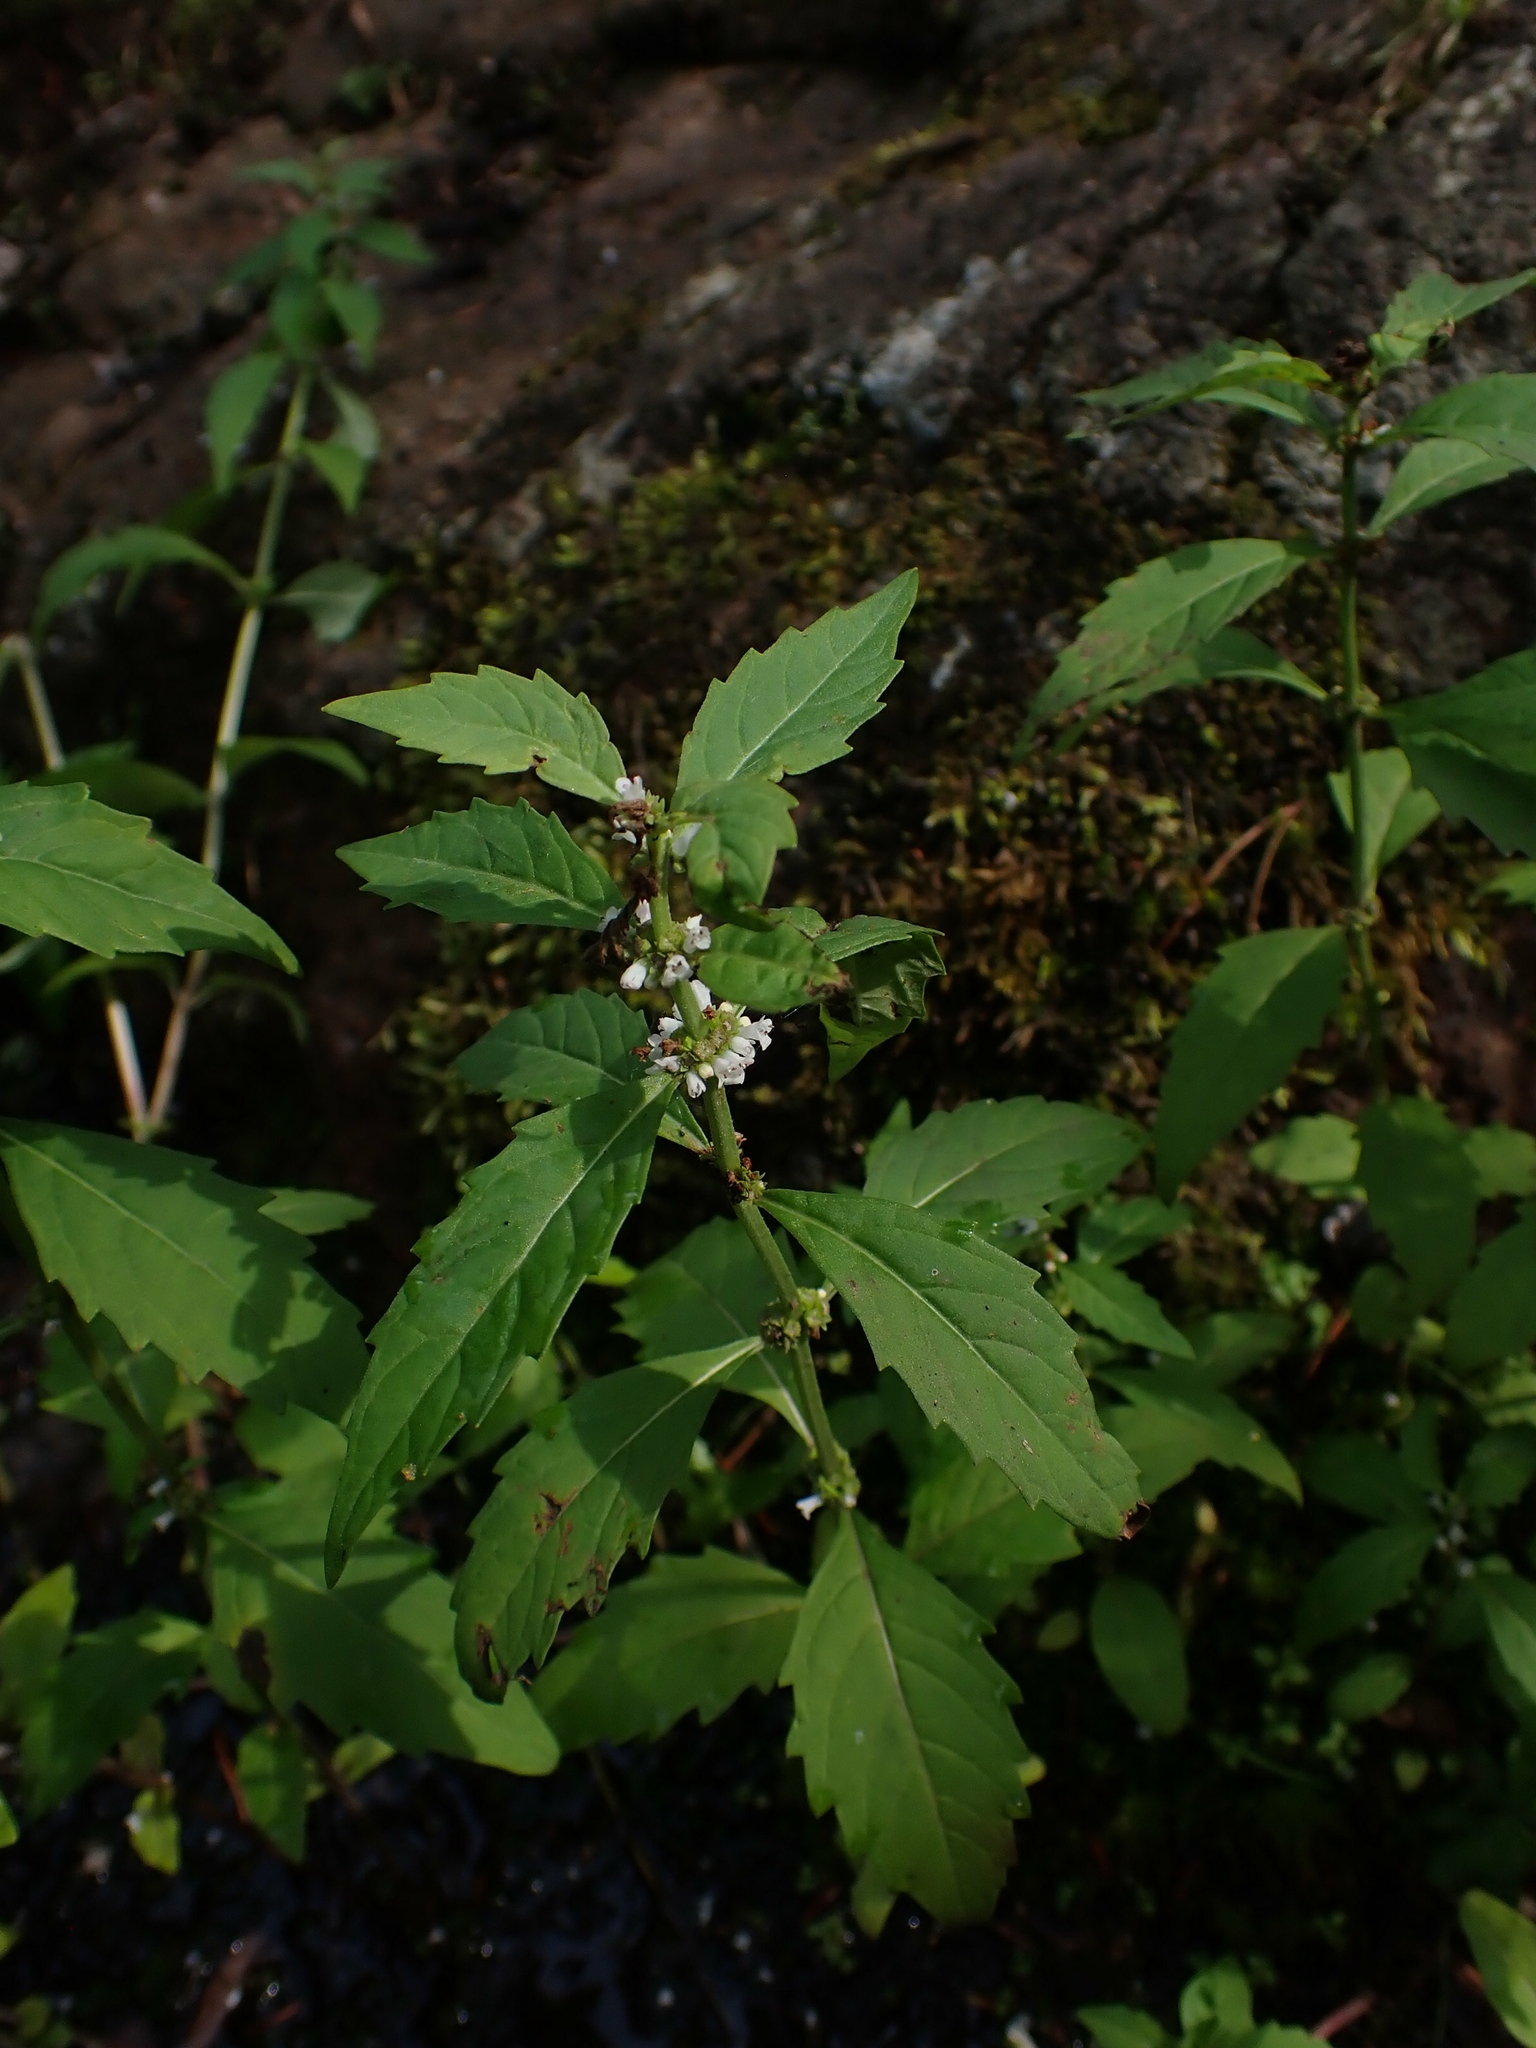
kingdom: Plantae
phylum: Tracheophyta
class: Magnoliopsida
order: Lamiales
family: Lamiaceae
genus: Lycopus
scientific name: Lycopus uniflorus
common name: Northern bugleweed
